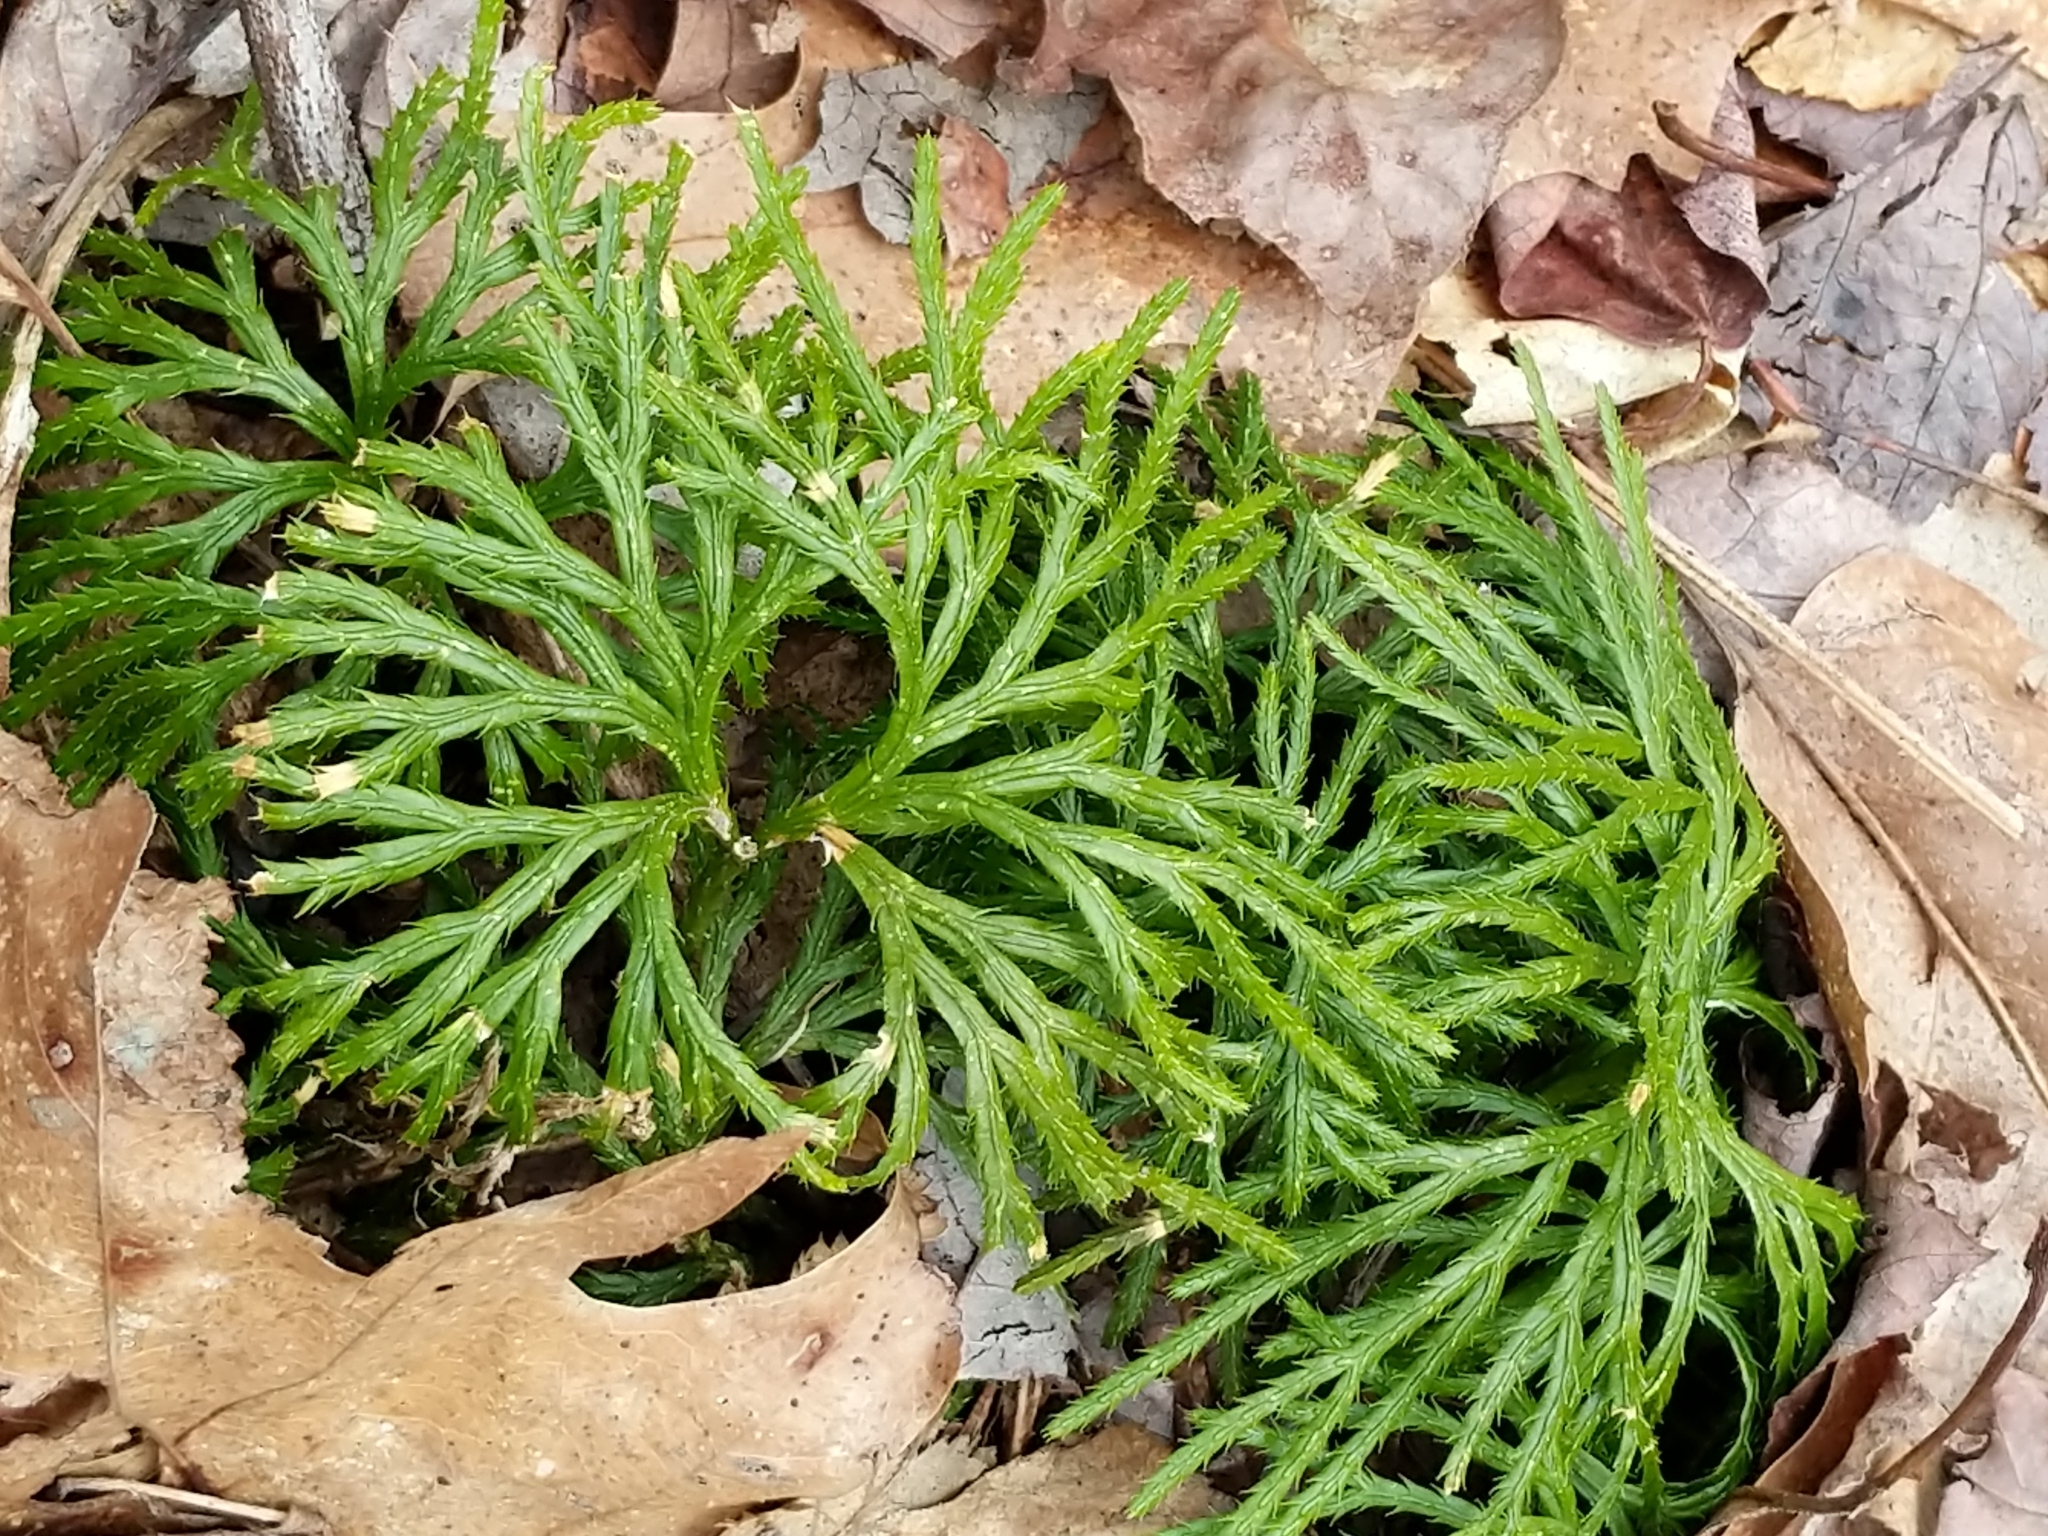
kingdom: Plantae
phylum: Tracheophyta
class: Lycopodiopsida
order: Lycopodiales
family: Lycopodiaceae
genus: Diphasiastrum
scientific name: Diphasiastrum digitatum
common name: Southern running-pine
